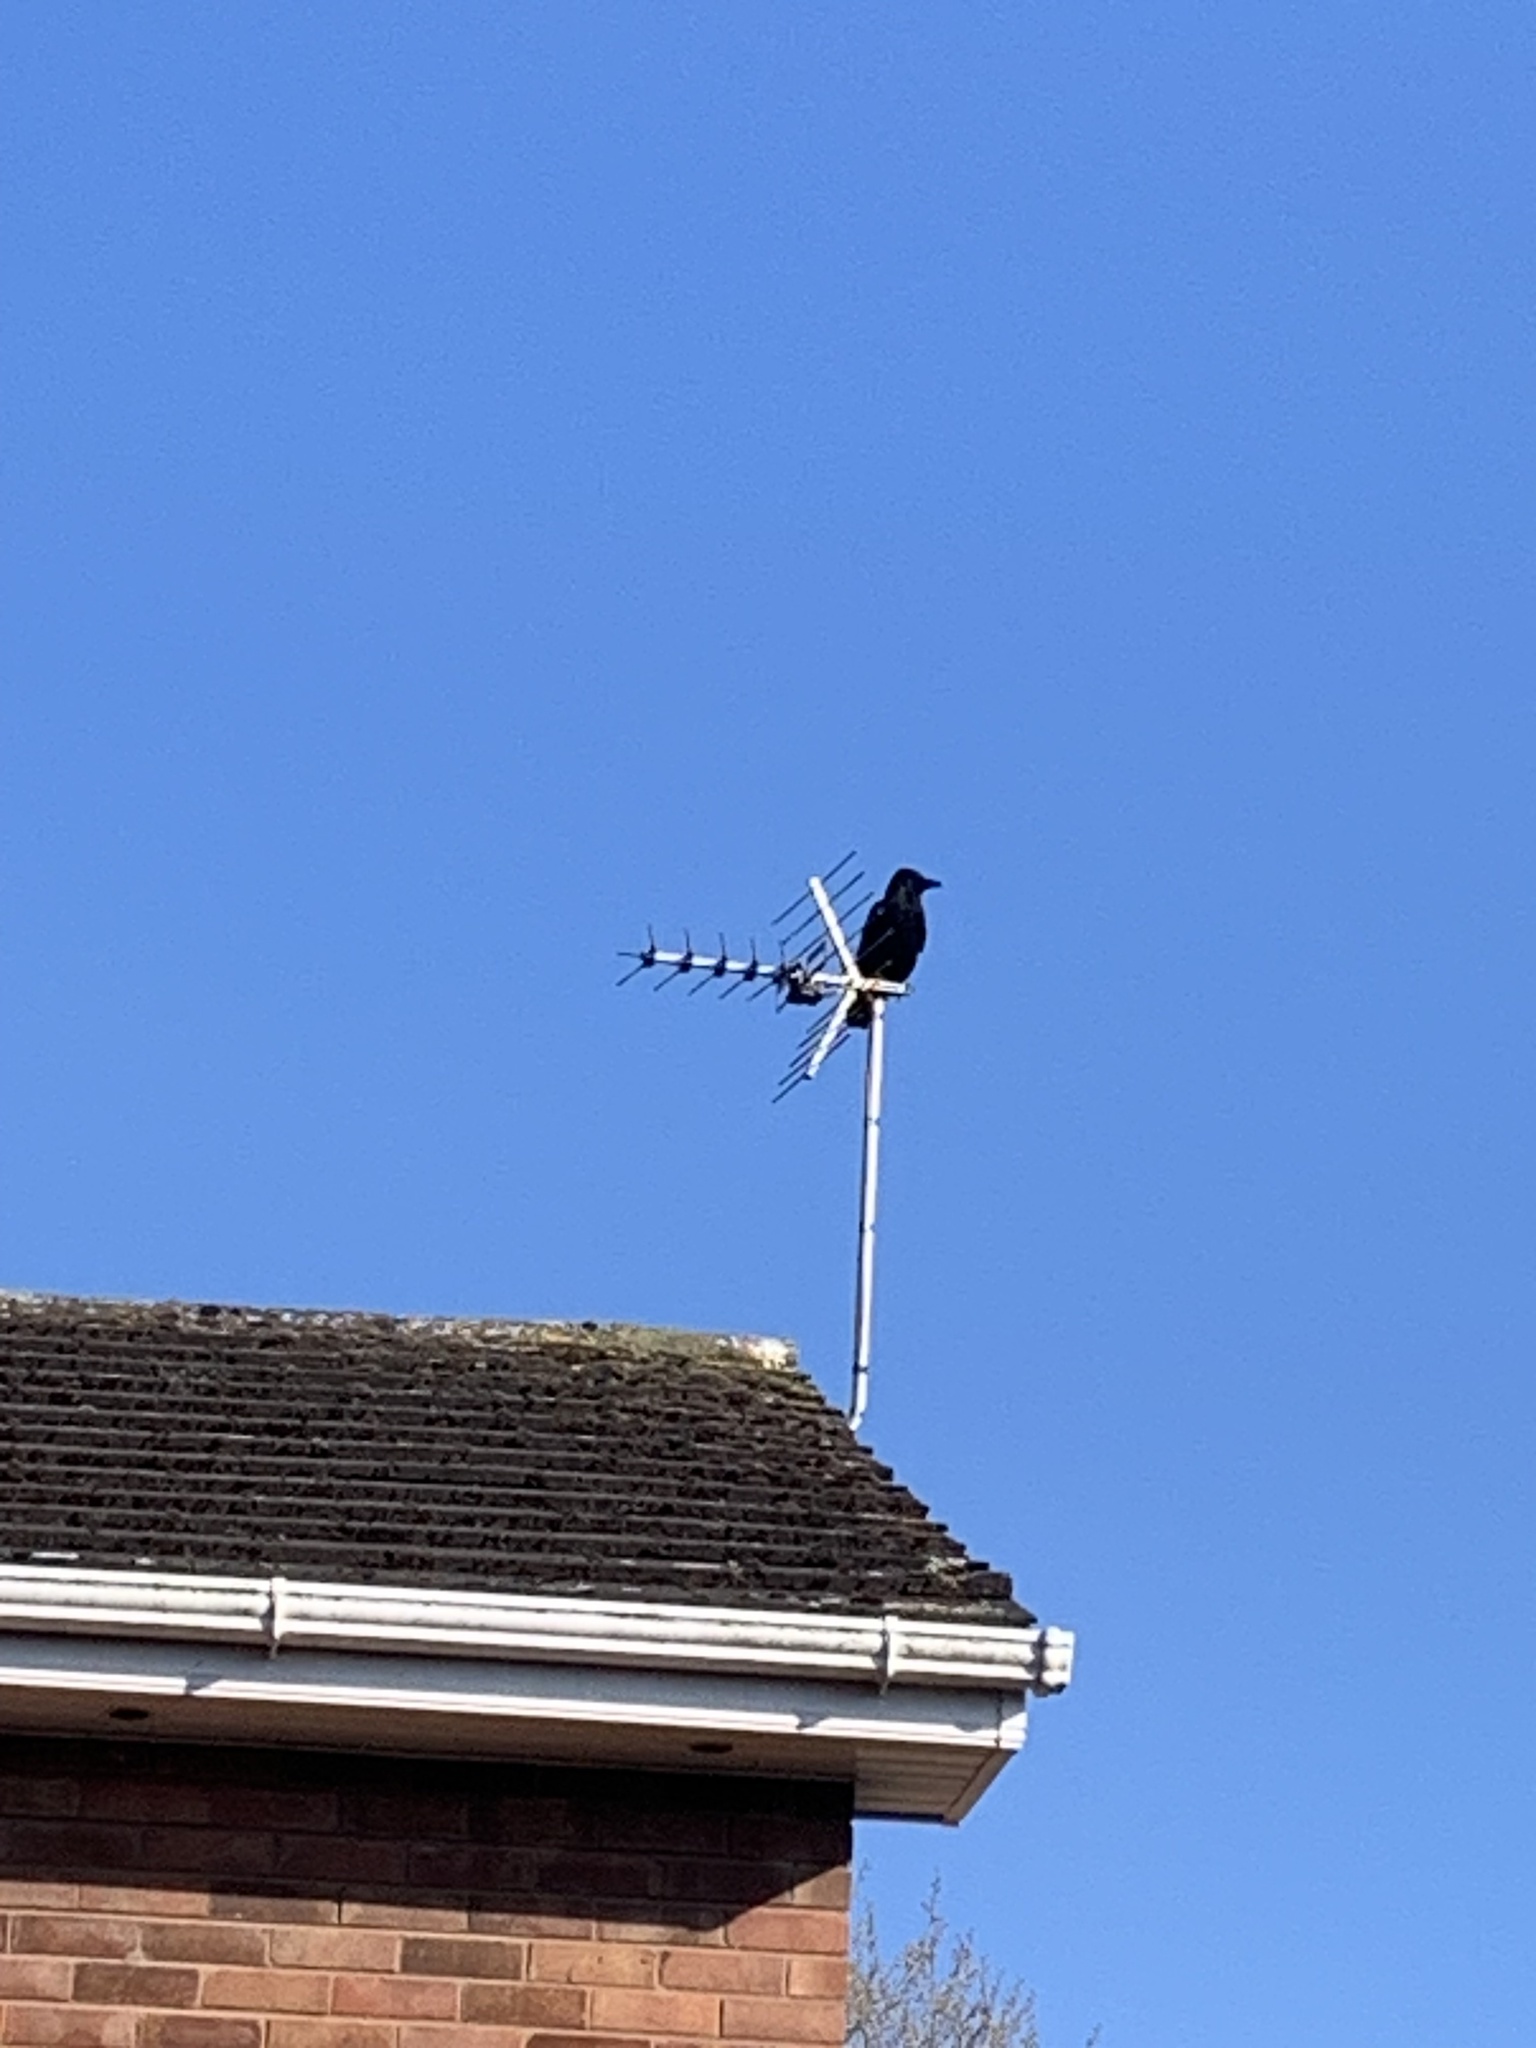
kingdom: Animalia
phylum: Chordata
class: Aves
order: Passeriformes
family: Corvidae
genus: Corvus
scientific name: Corvus corone
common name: Carrion crow
